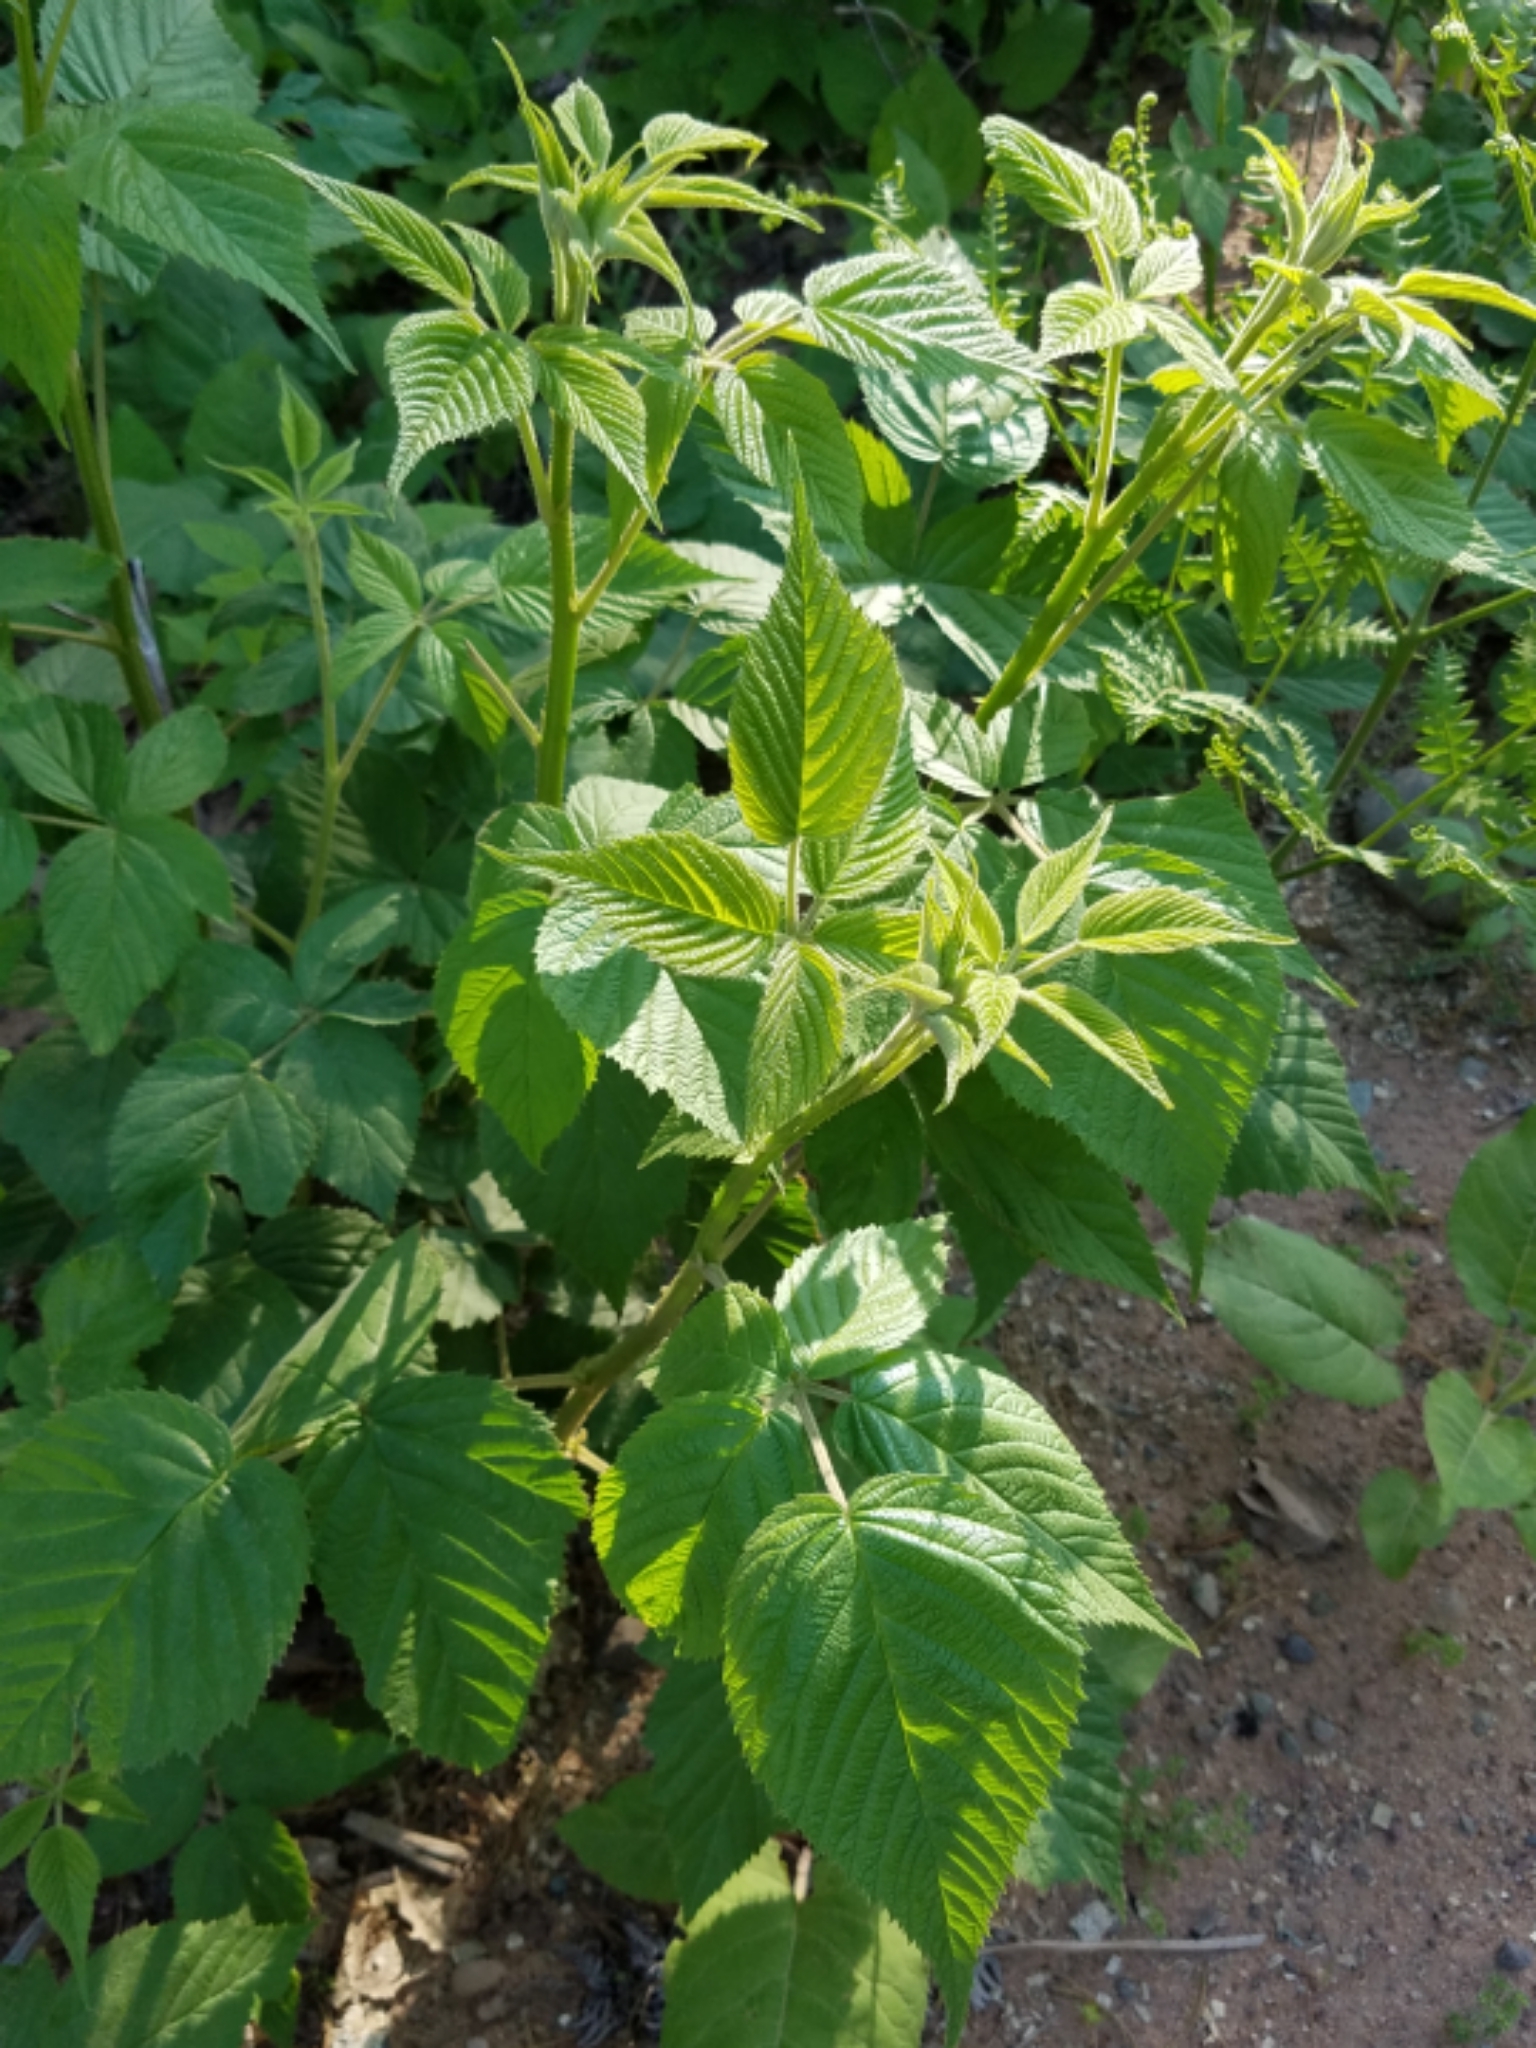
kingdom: Plantae
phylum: Tracheophyta
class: Magnoliopsida
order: Rosales
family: Rosaceae
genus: Rubus
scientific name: Rubus allegheniensis
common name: Allegheny blackberry
